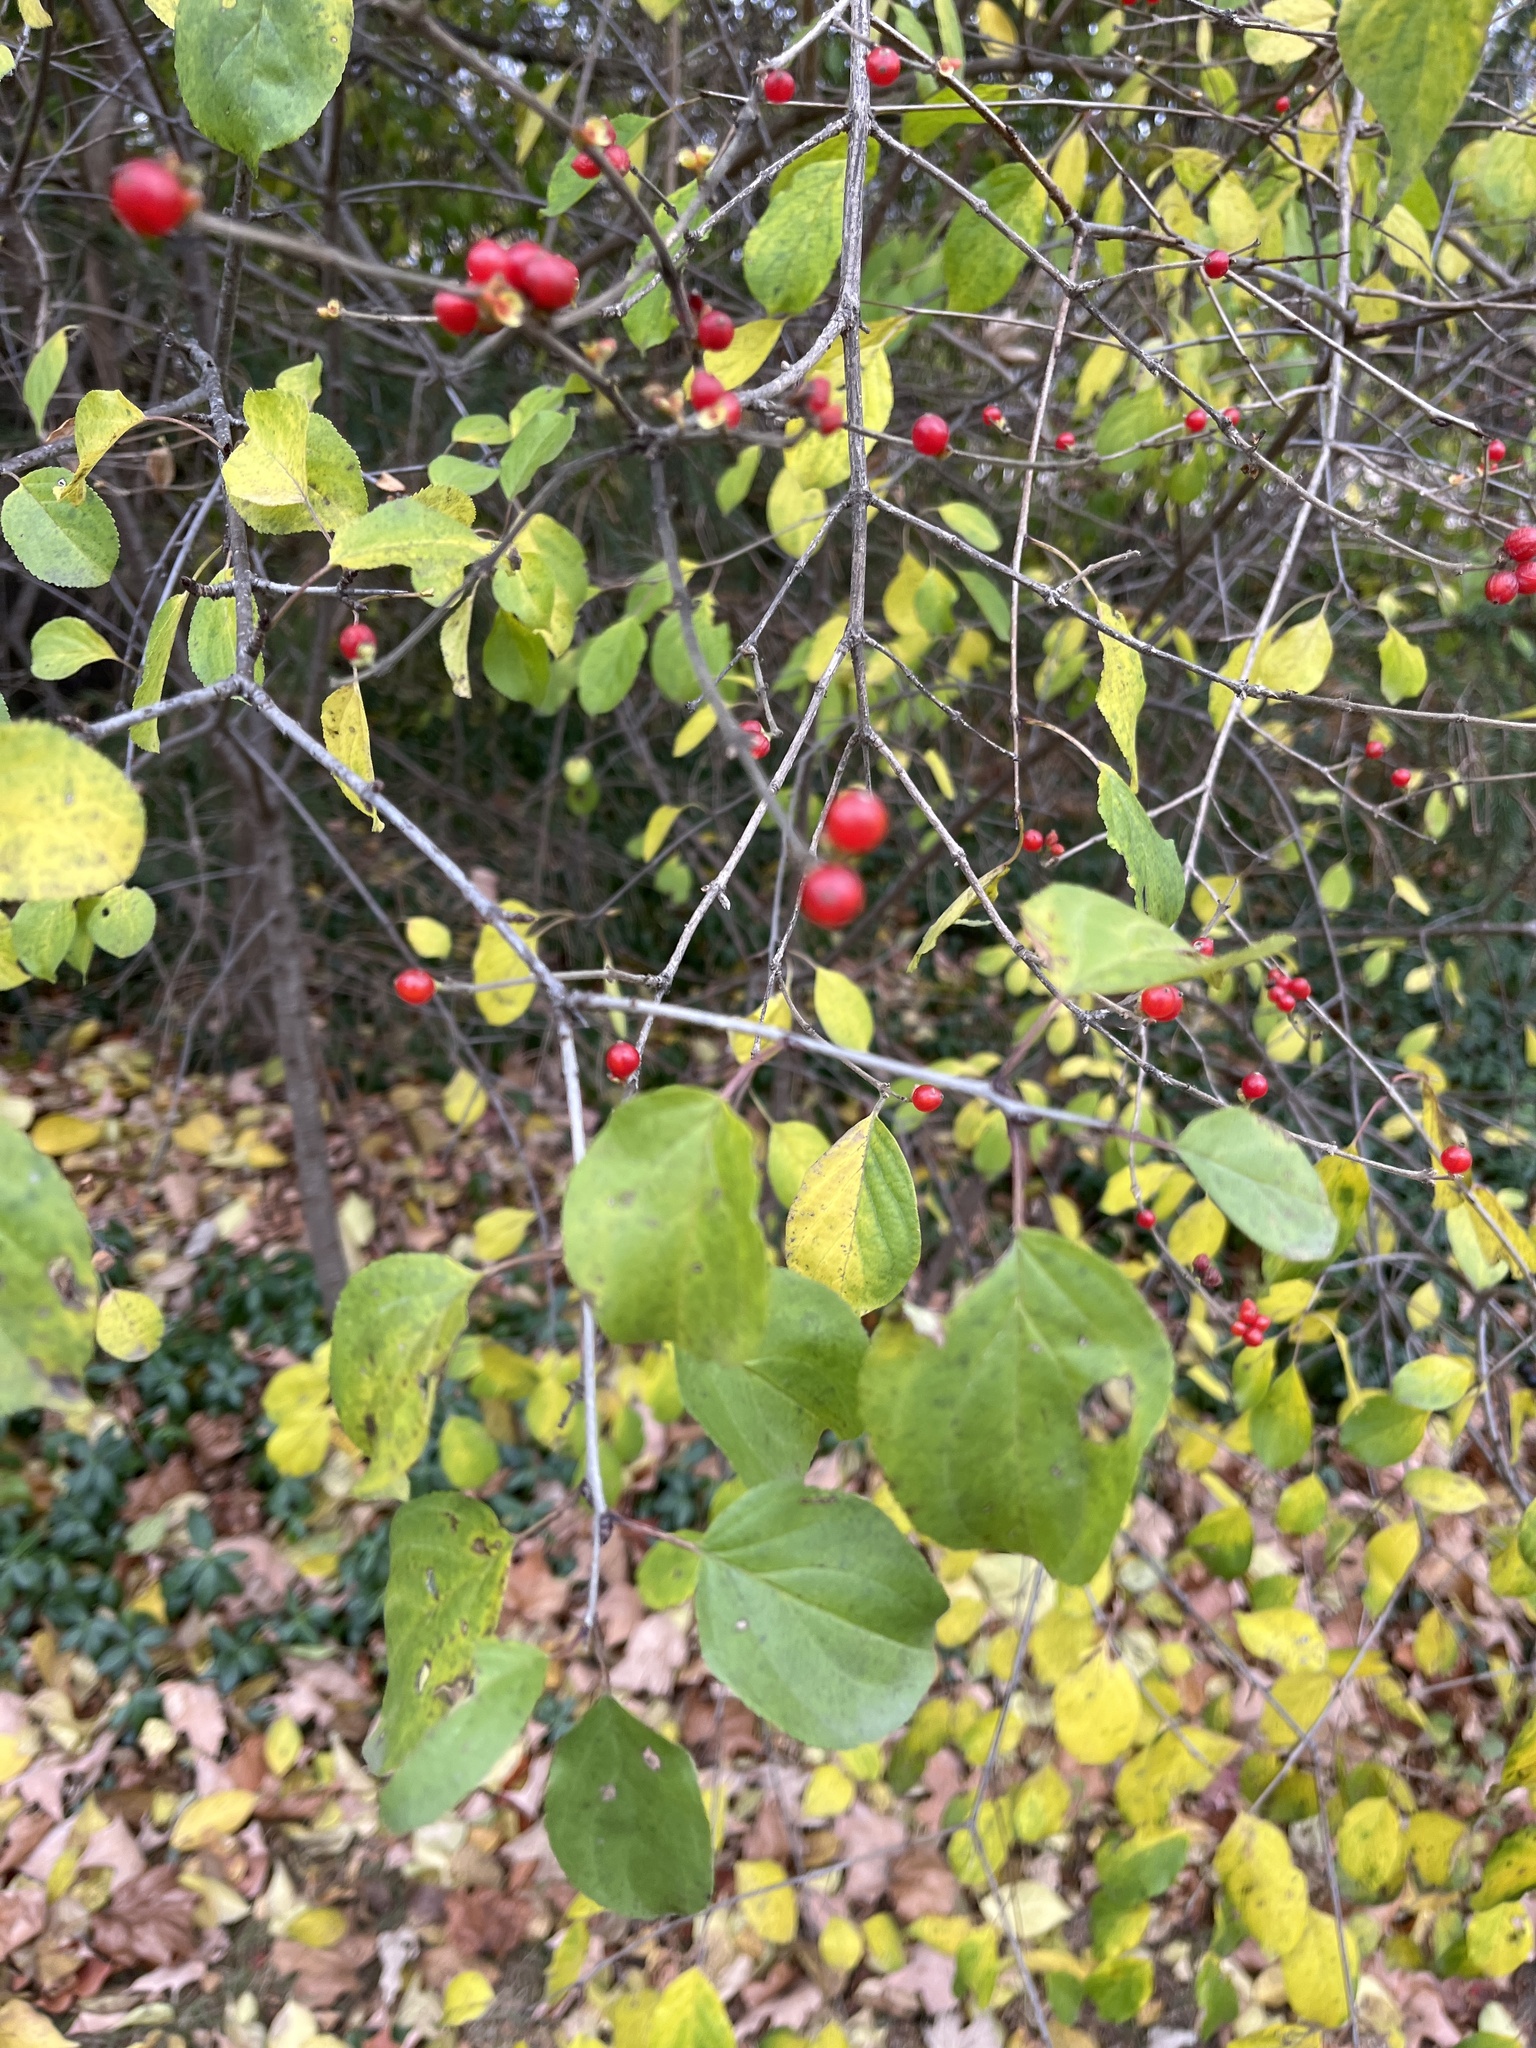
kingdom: Plantae
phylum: Tracheophyta
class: Magnoliopsida
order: Dipsacales
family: Caprifoliaceae
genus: Lonicera
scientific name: Lonicera maackii
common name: Amur honeysuckle
